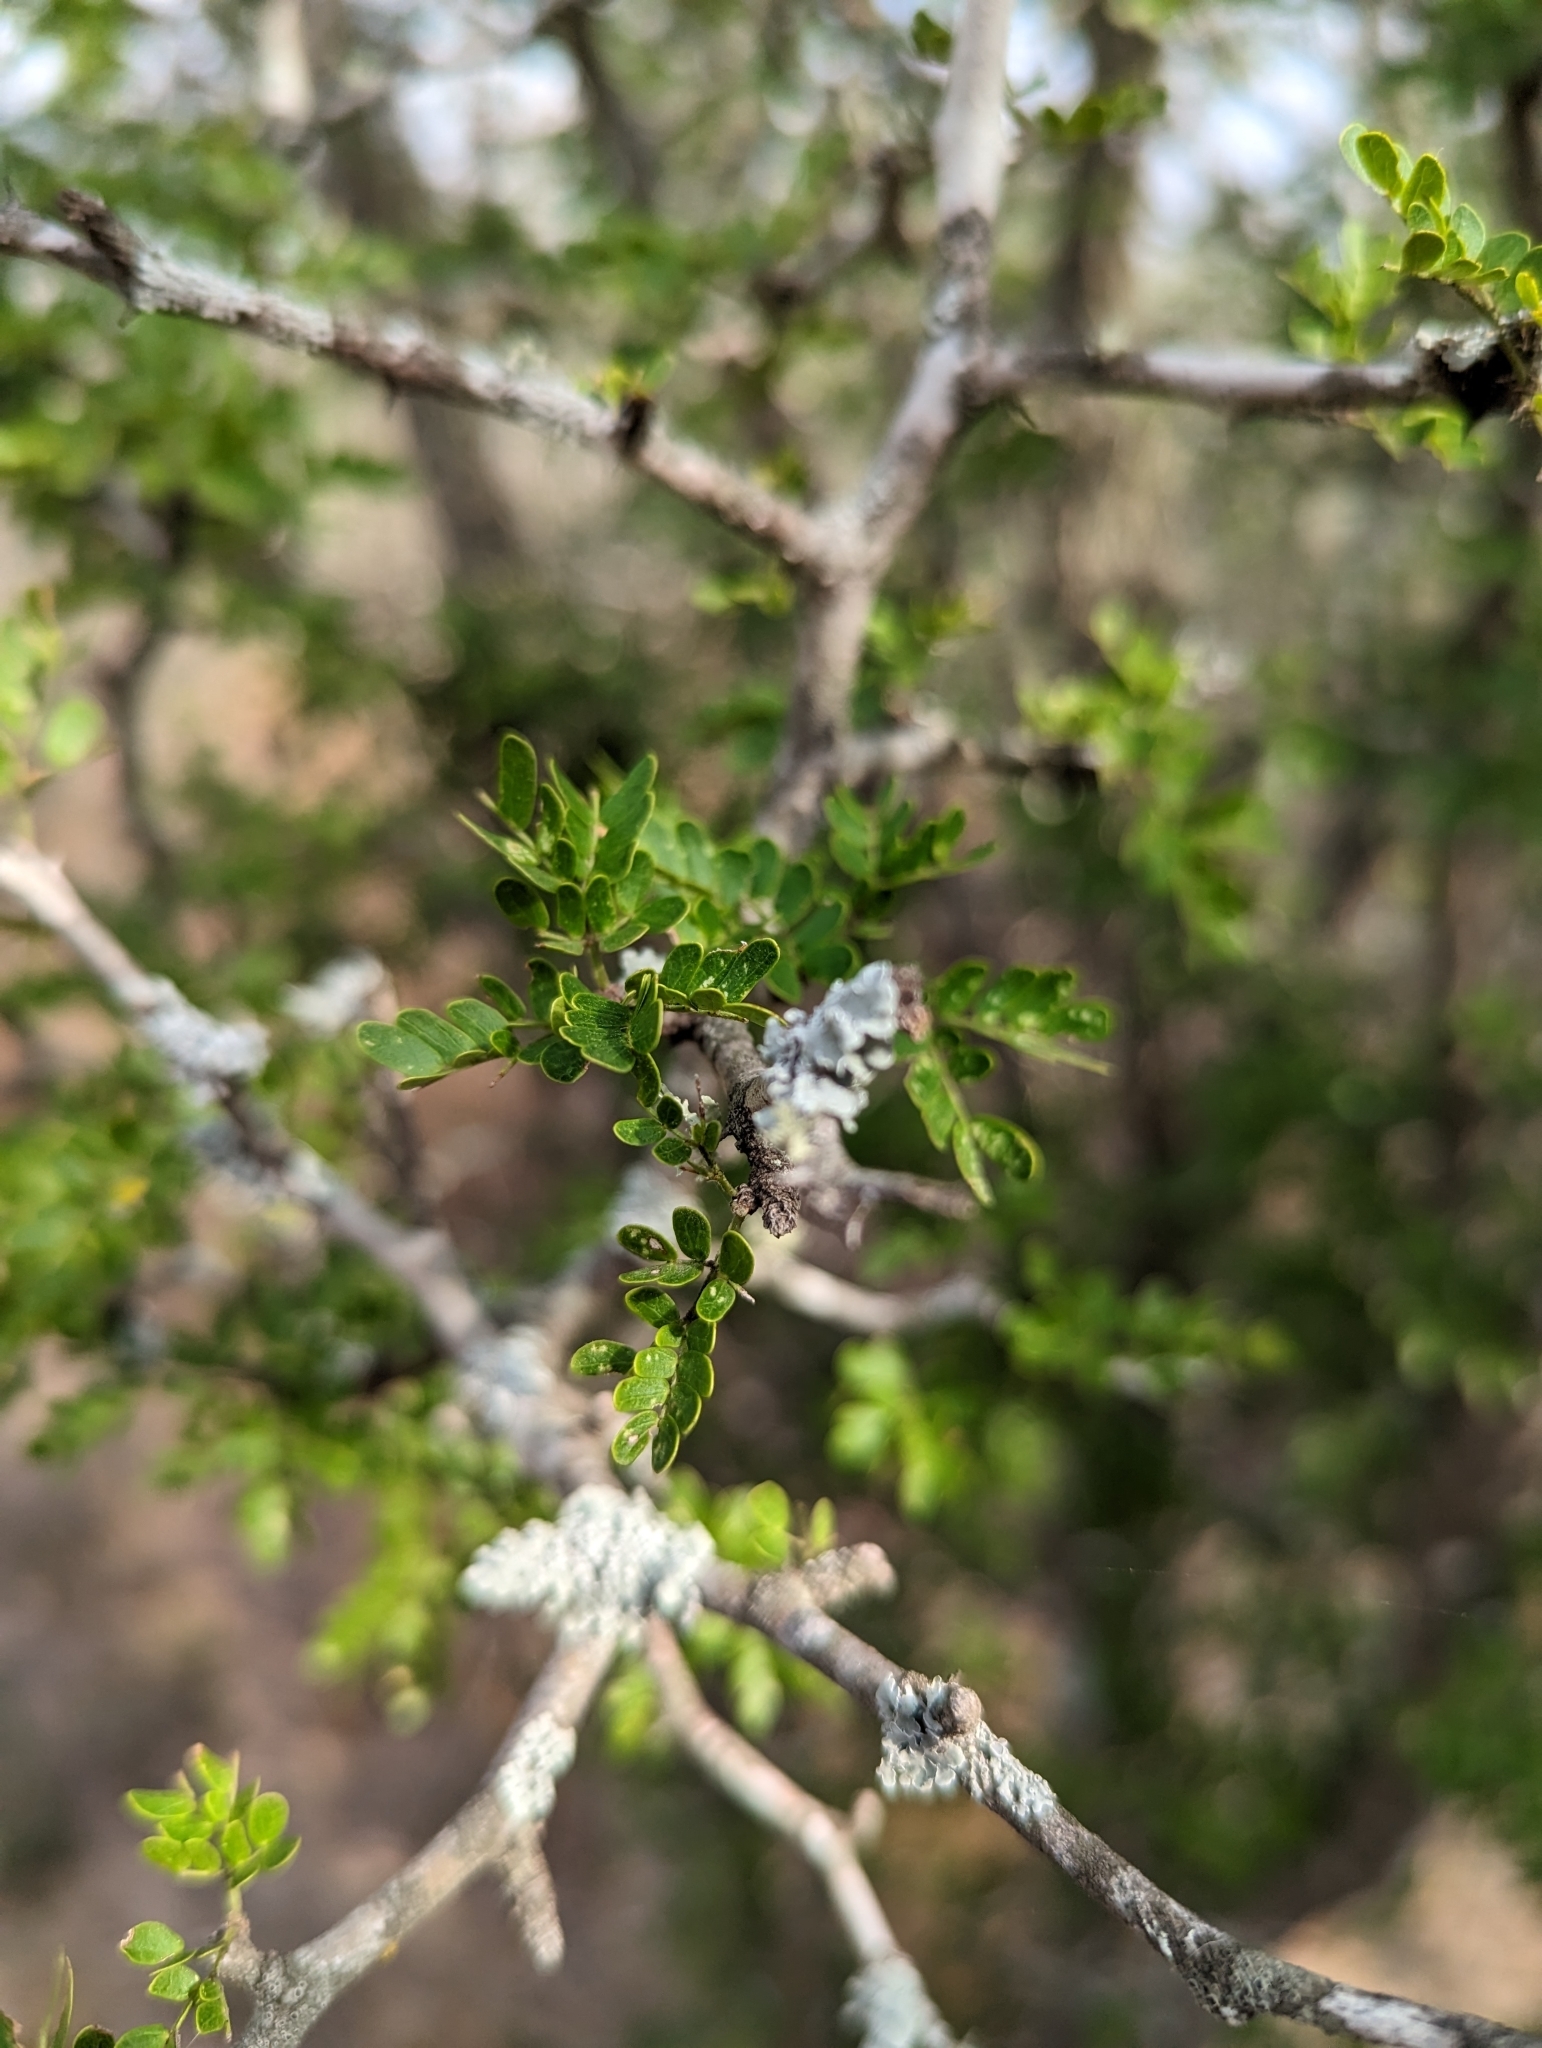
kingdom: Plantae
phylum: Tracheophyta
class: Magnoliopsida
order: Fabales
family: Fabaceae
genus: Vachellia
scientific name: Vachellia rigidula
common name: Blackbrush
